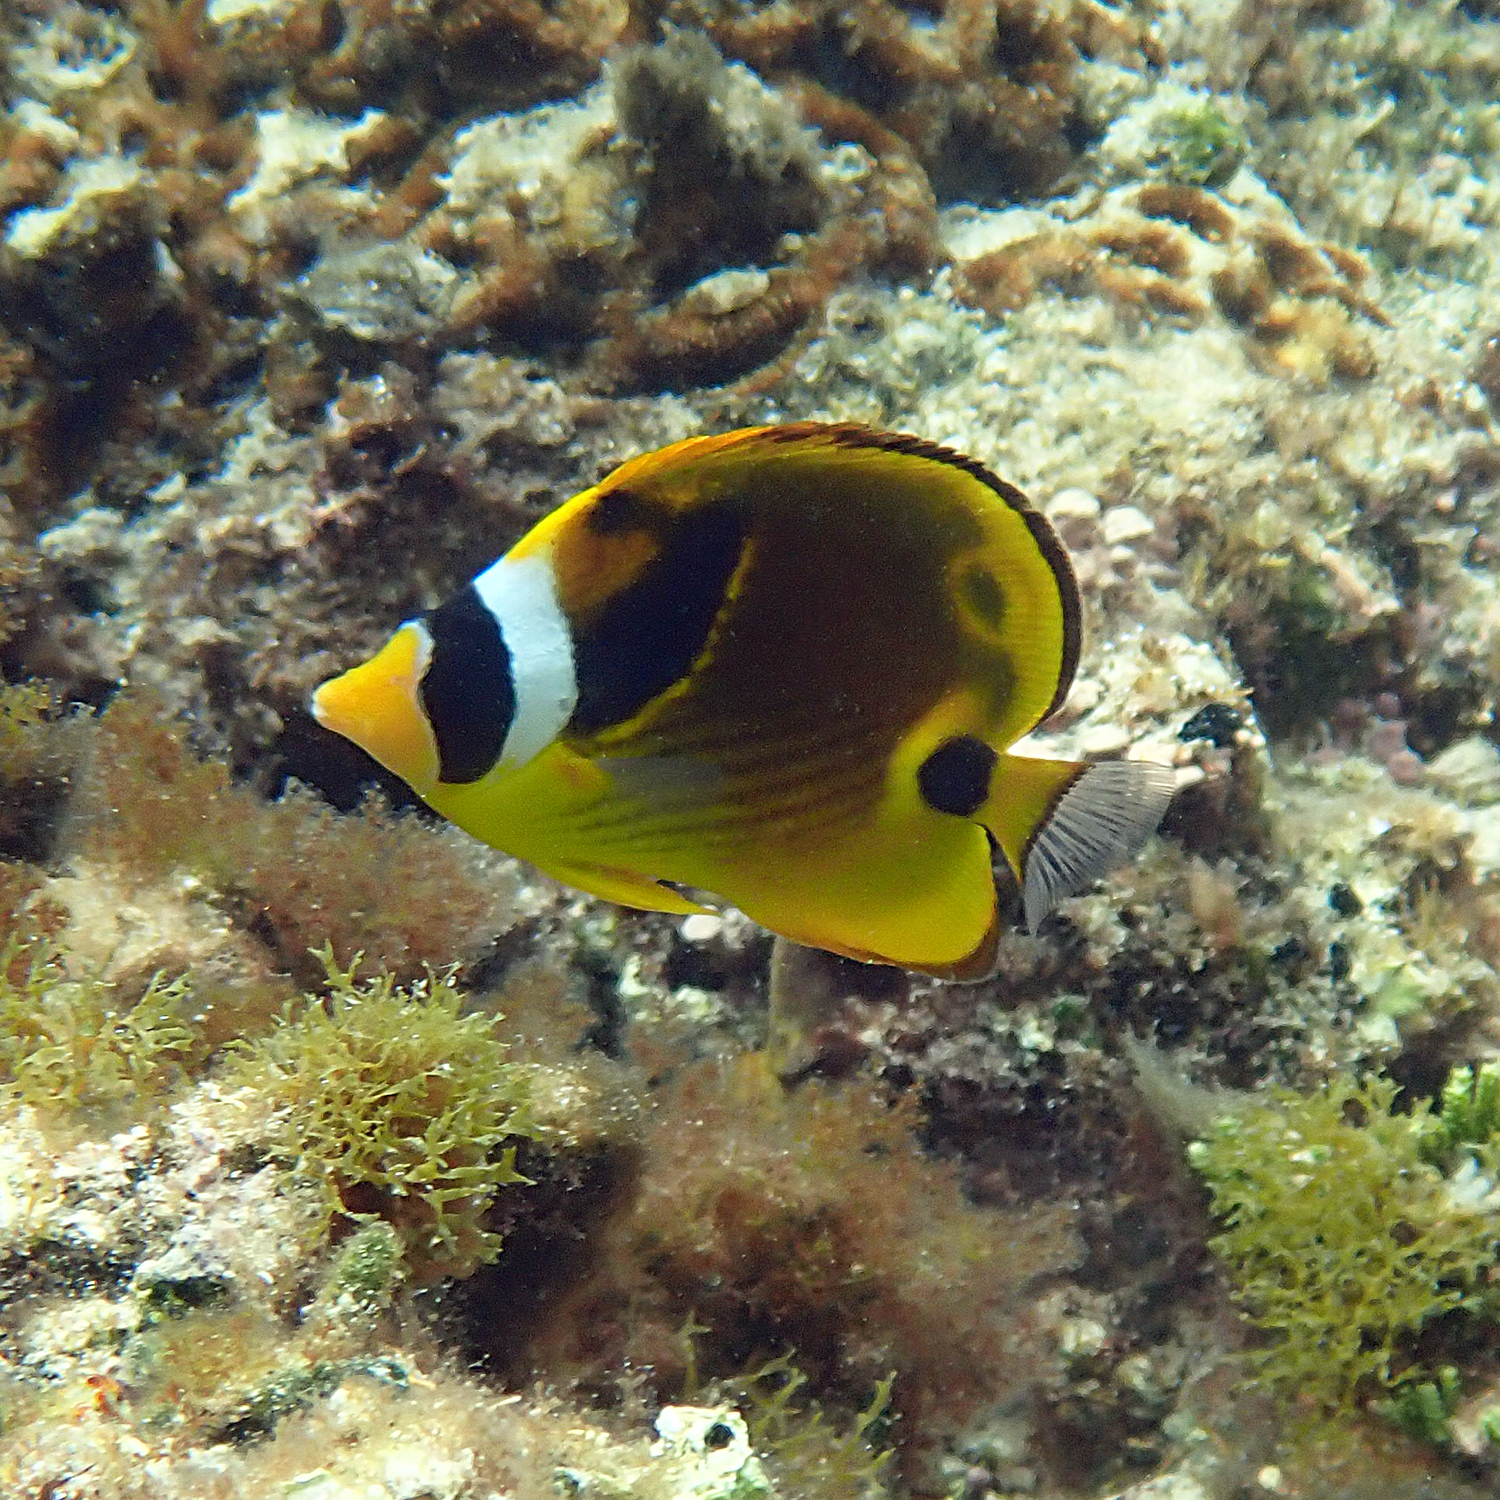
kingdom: Animalia
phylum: Chordata
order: Perciformes
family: Chaetodontidae
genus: Chaetodon
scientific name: Chaetodon lunula
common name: Raccoon butterflyfish
